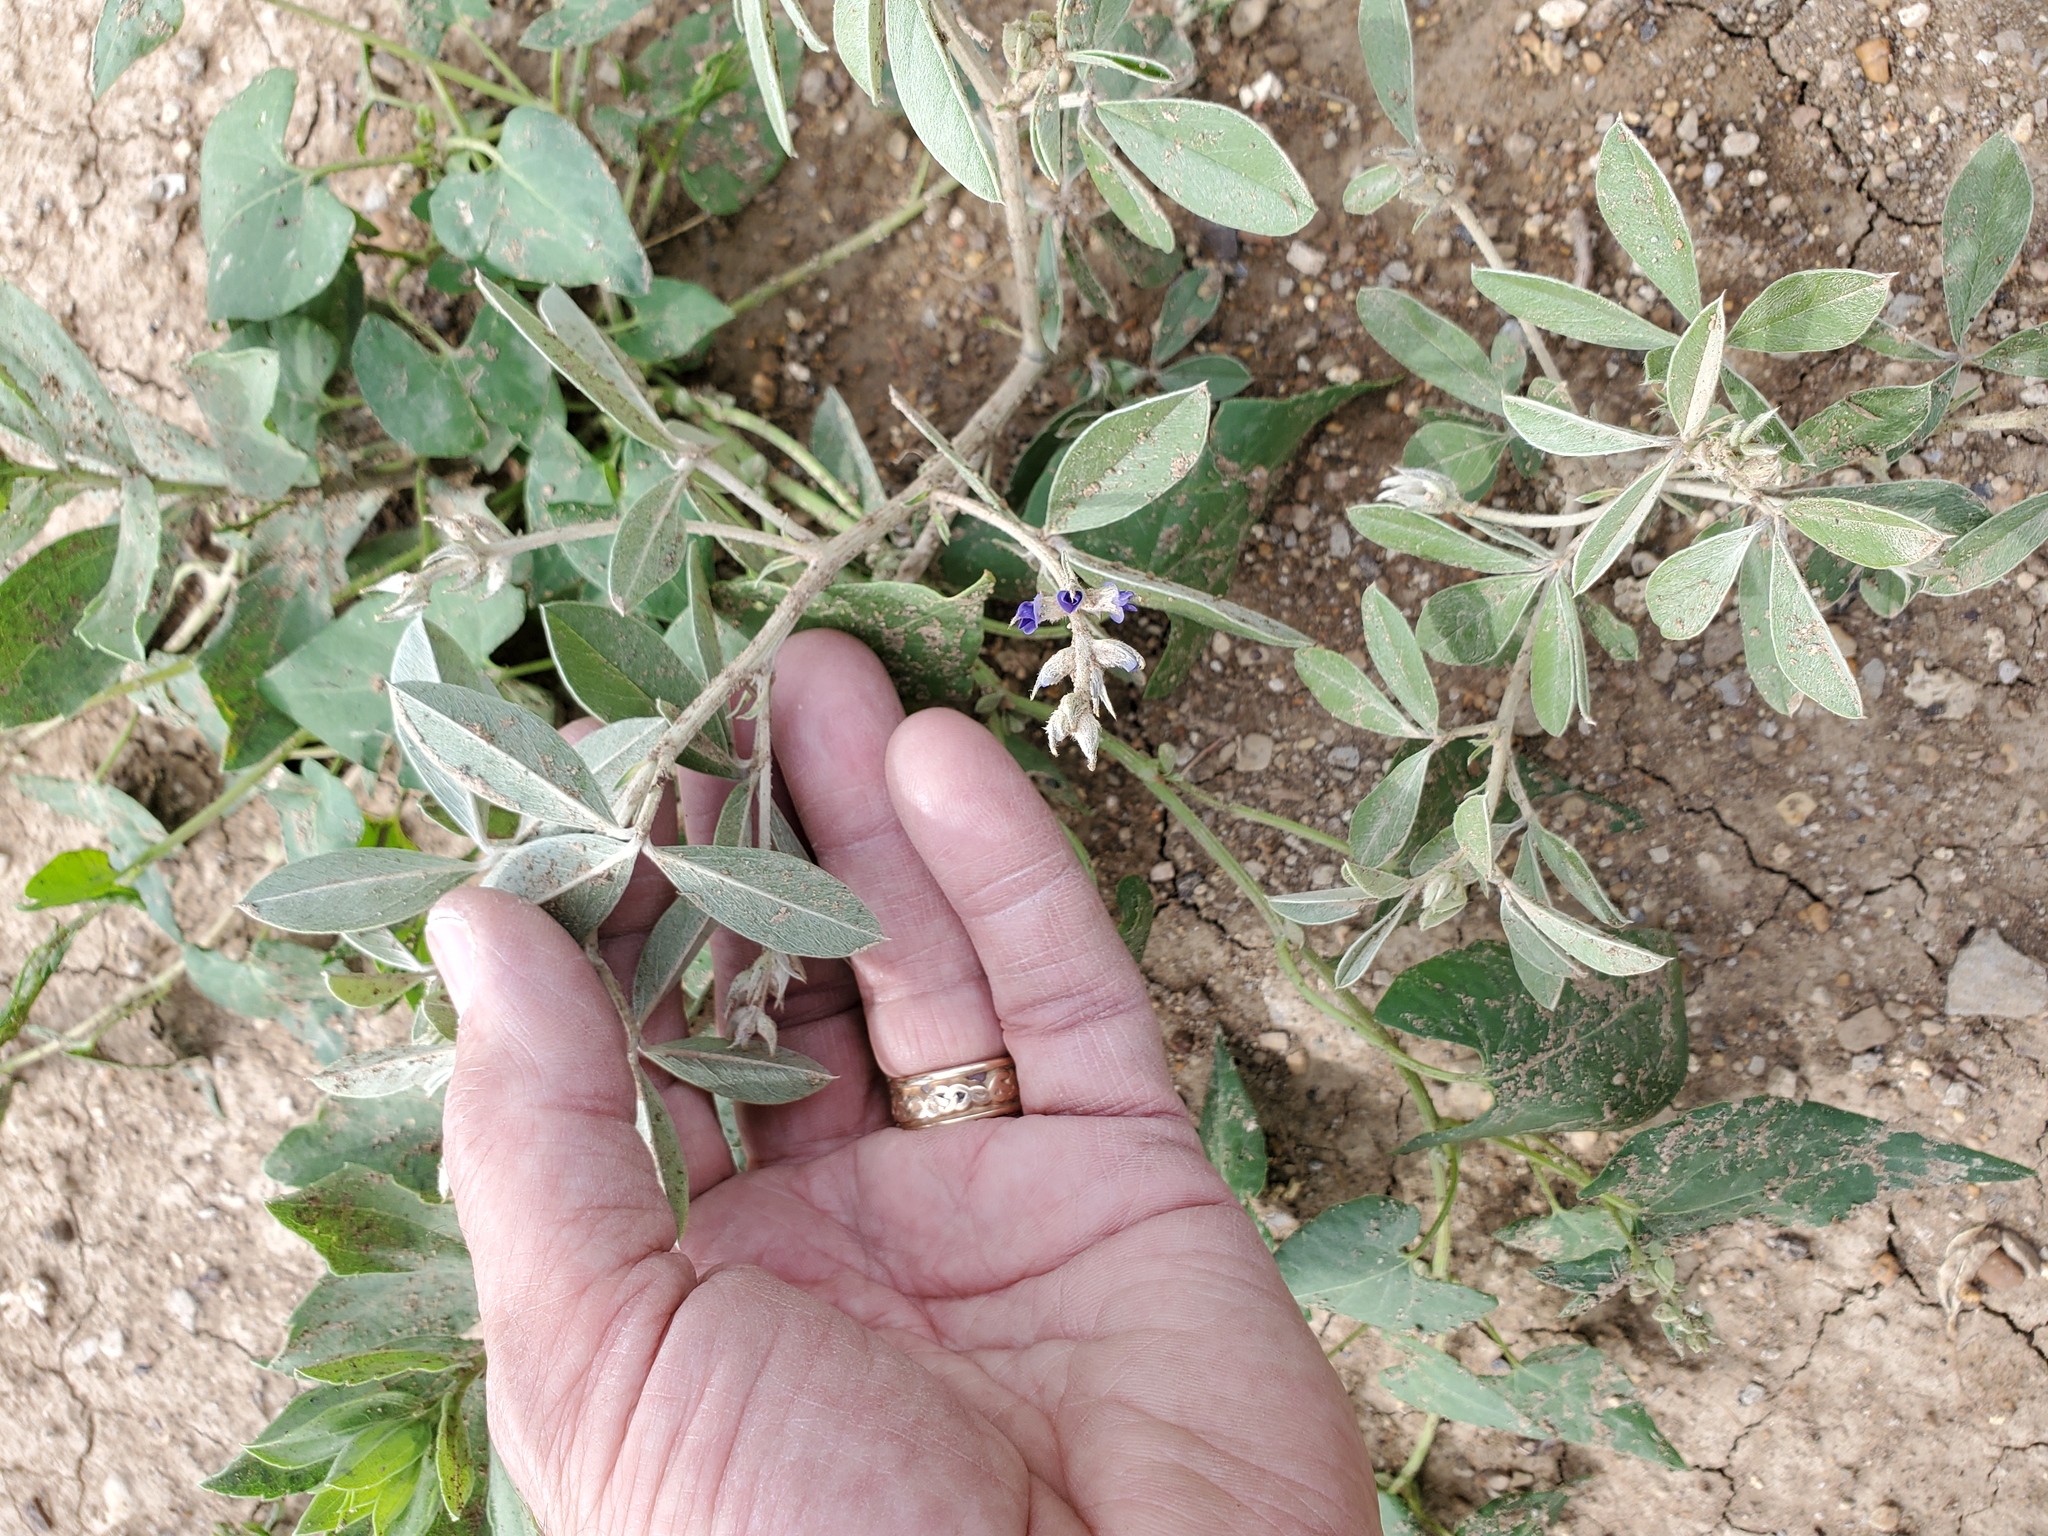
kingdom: Plantae
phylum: Tracheophyta
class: Magnoliopsida
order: Fabales
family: Fabaceae
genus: Pediomelum
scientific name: Pediomelum argophyllum
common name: Silver-leaved indian breadroot
